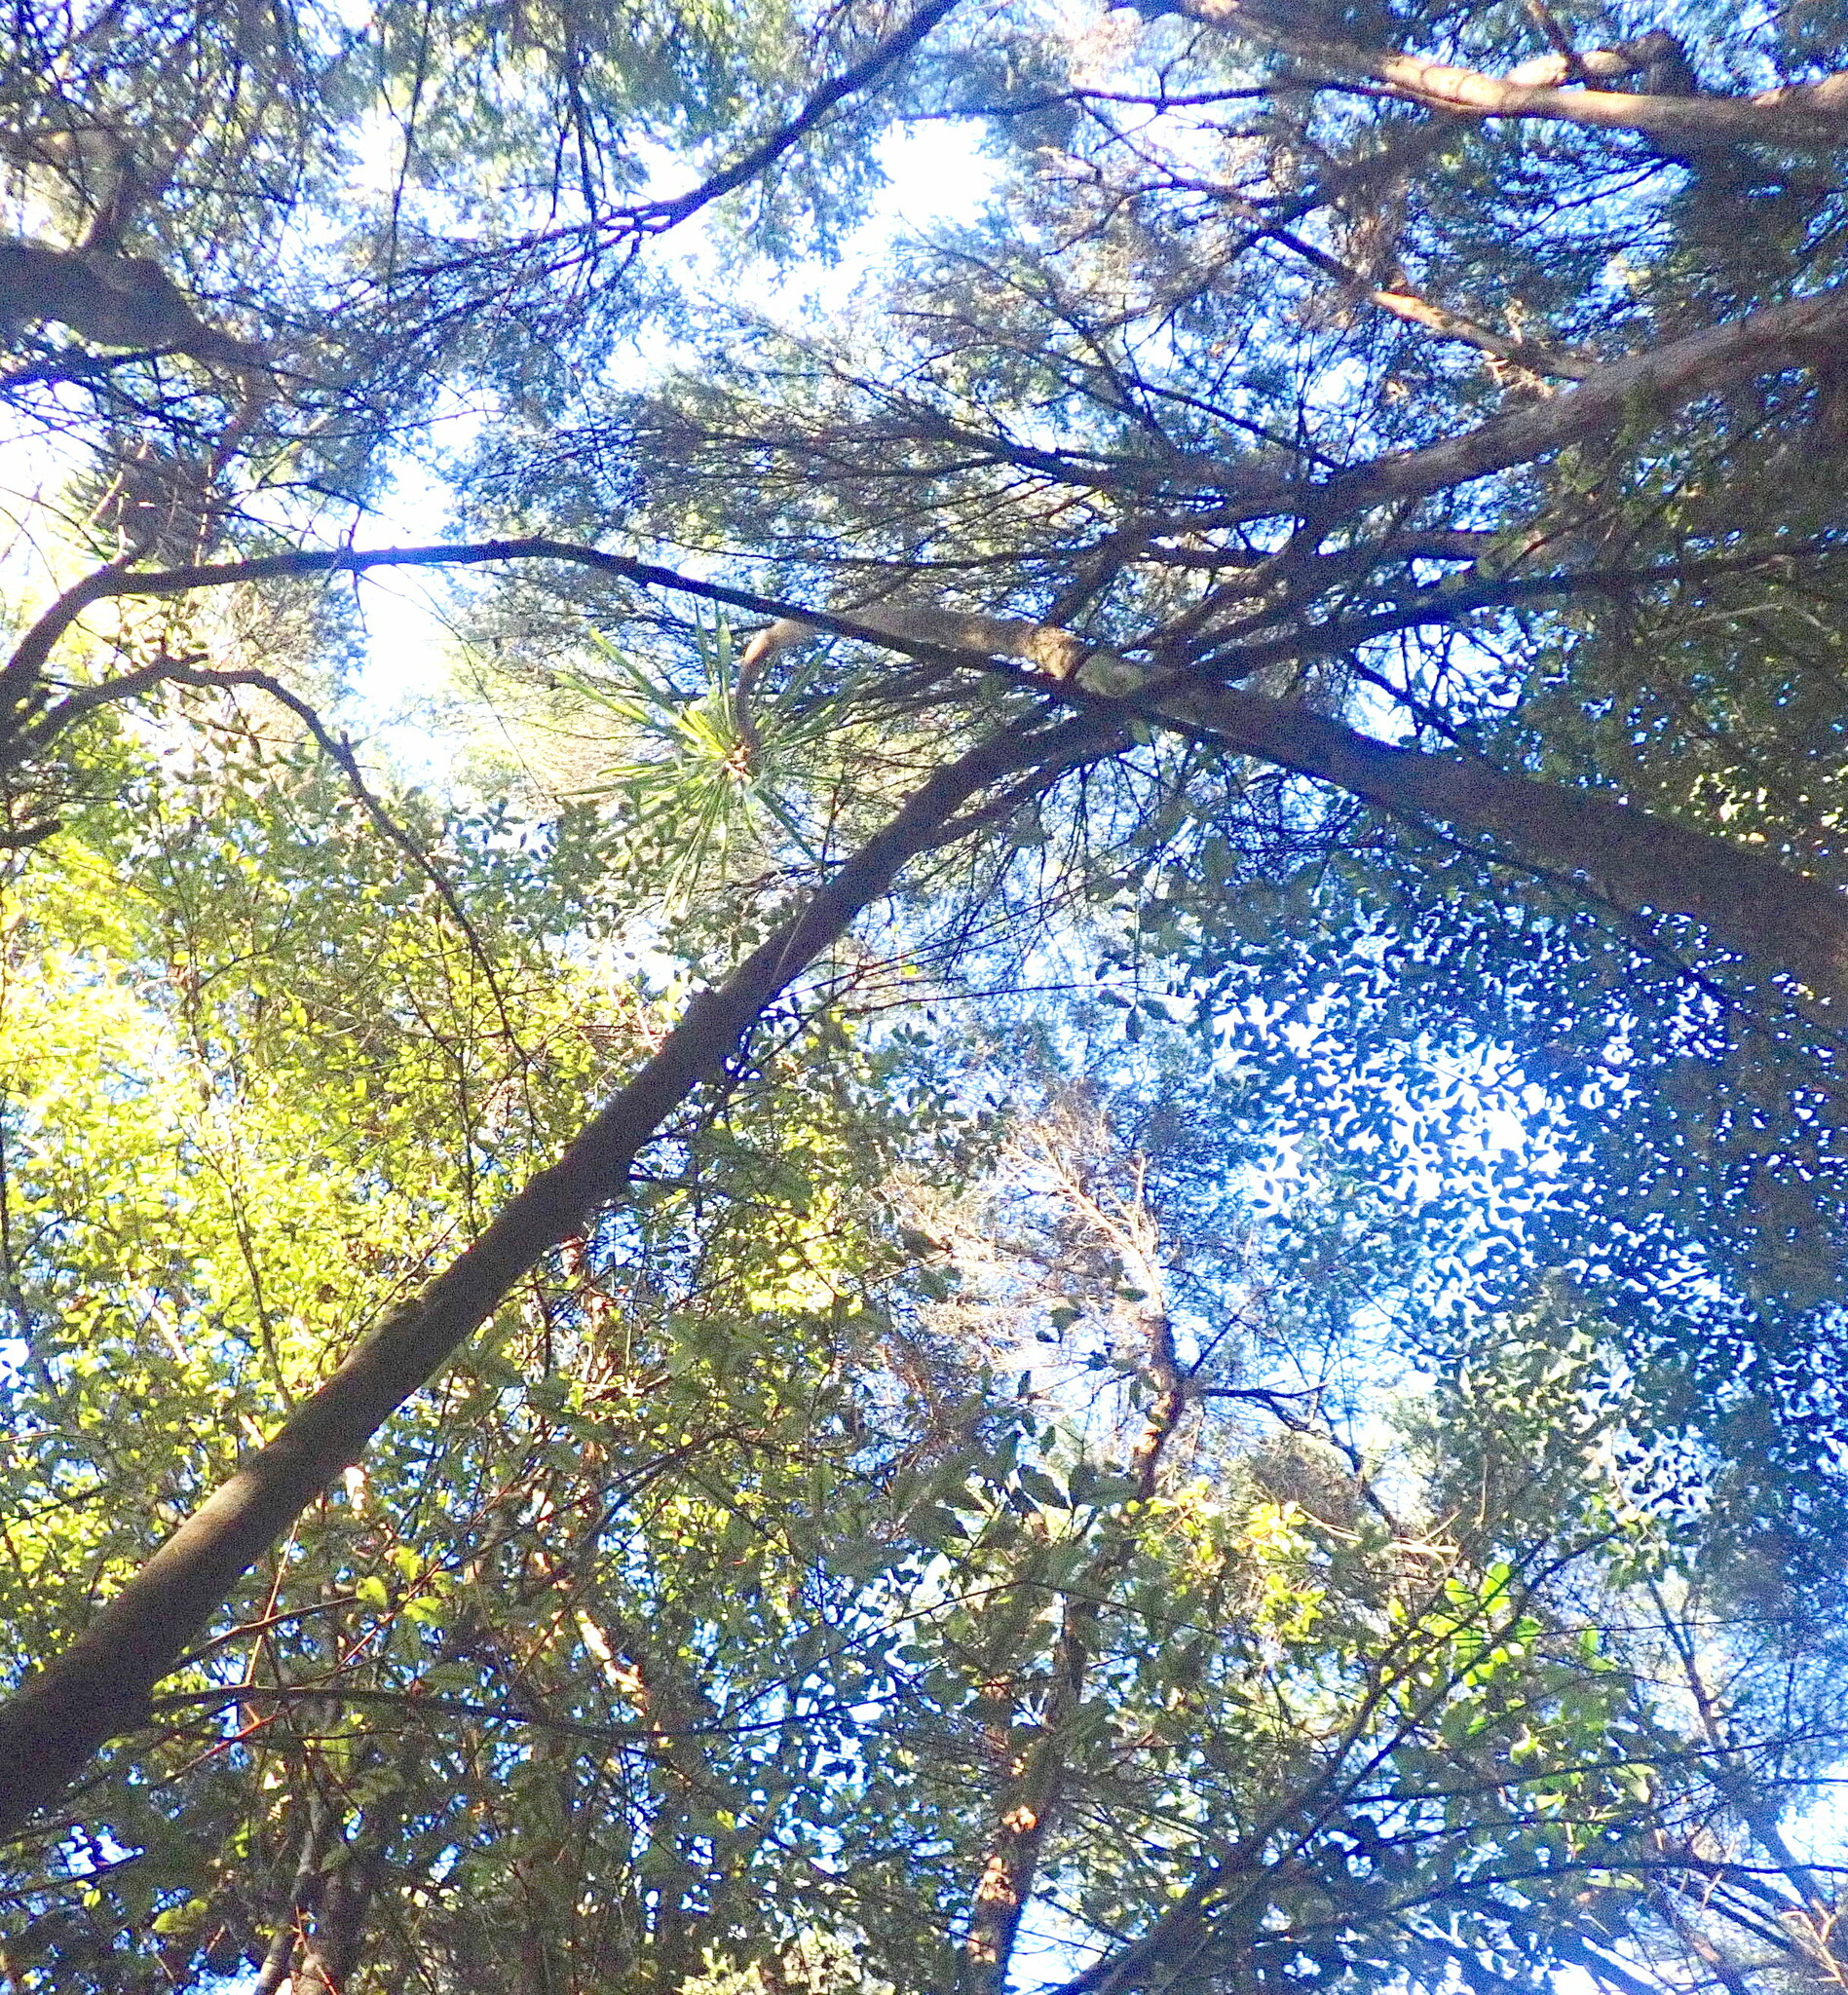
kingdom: Plantae
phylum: Tracheophyta
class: Liliopsida
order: Asparagales
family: Asparagaceae
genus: Cordyline
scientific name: Cordyline australis
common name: Cabbage-palm
